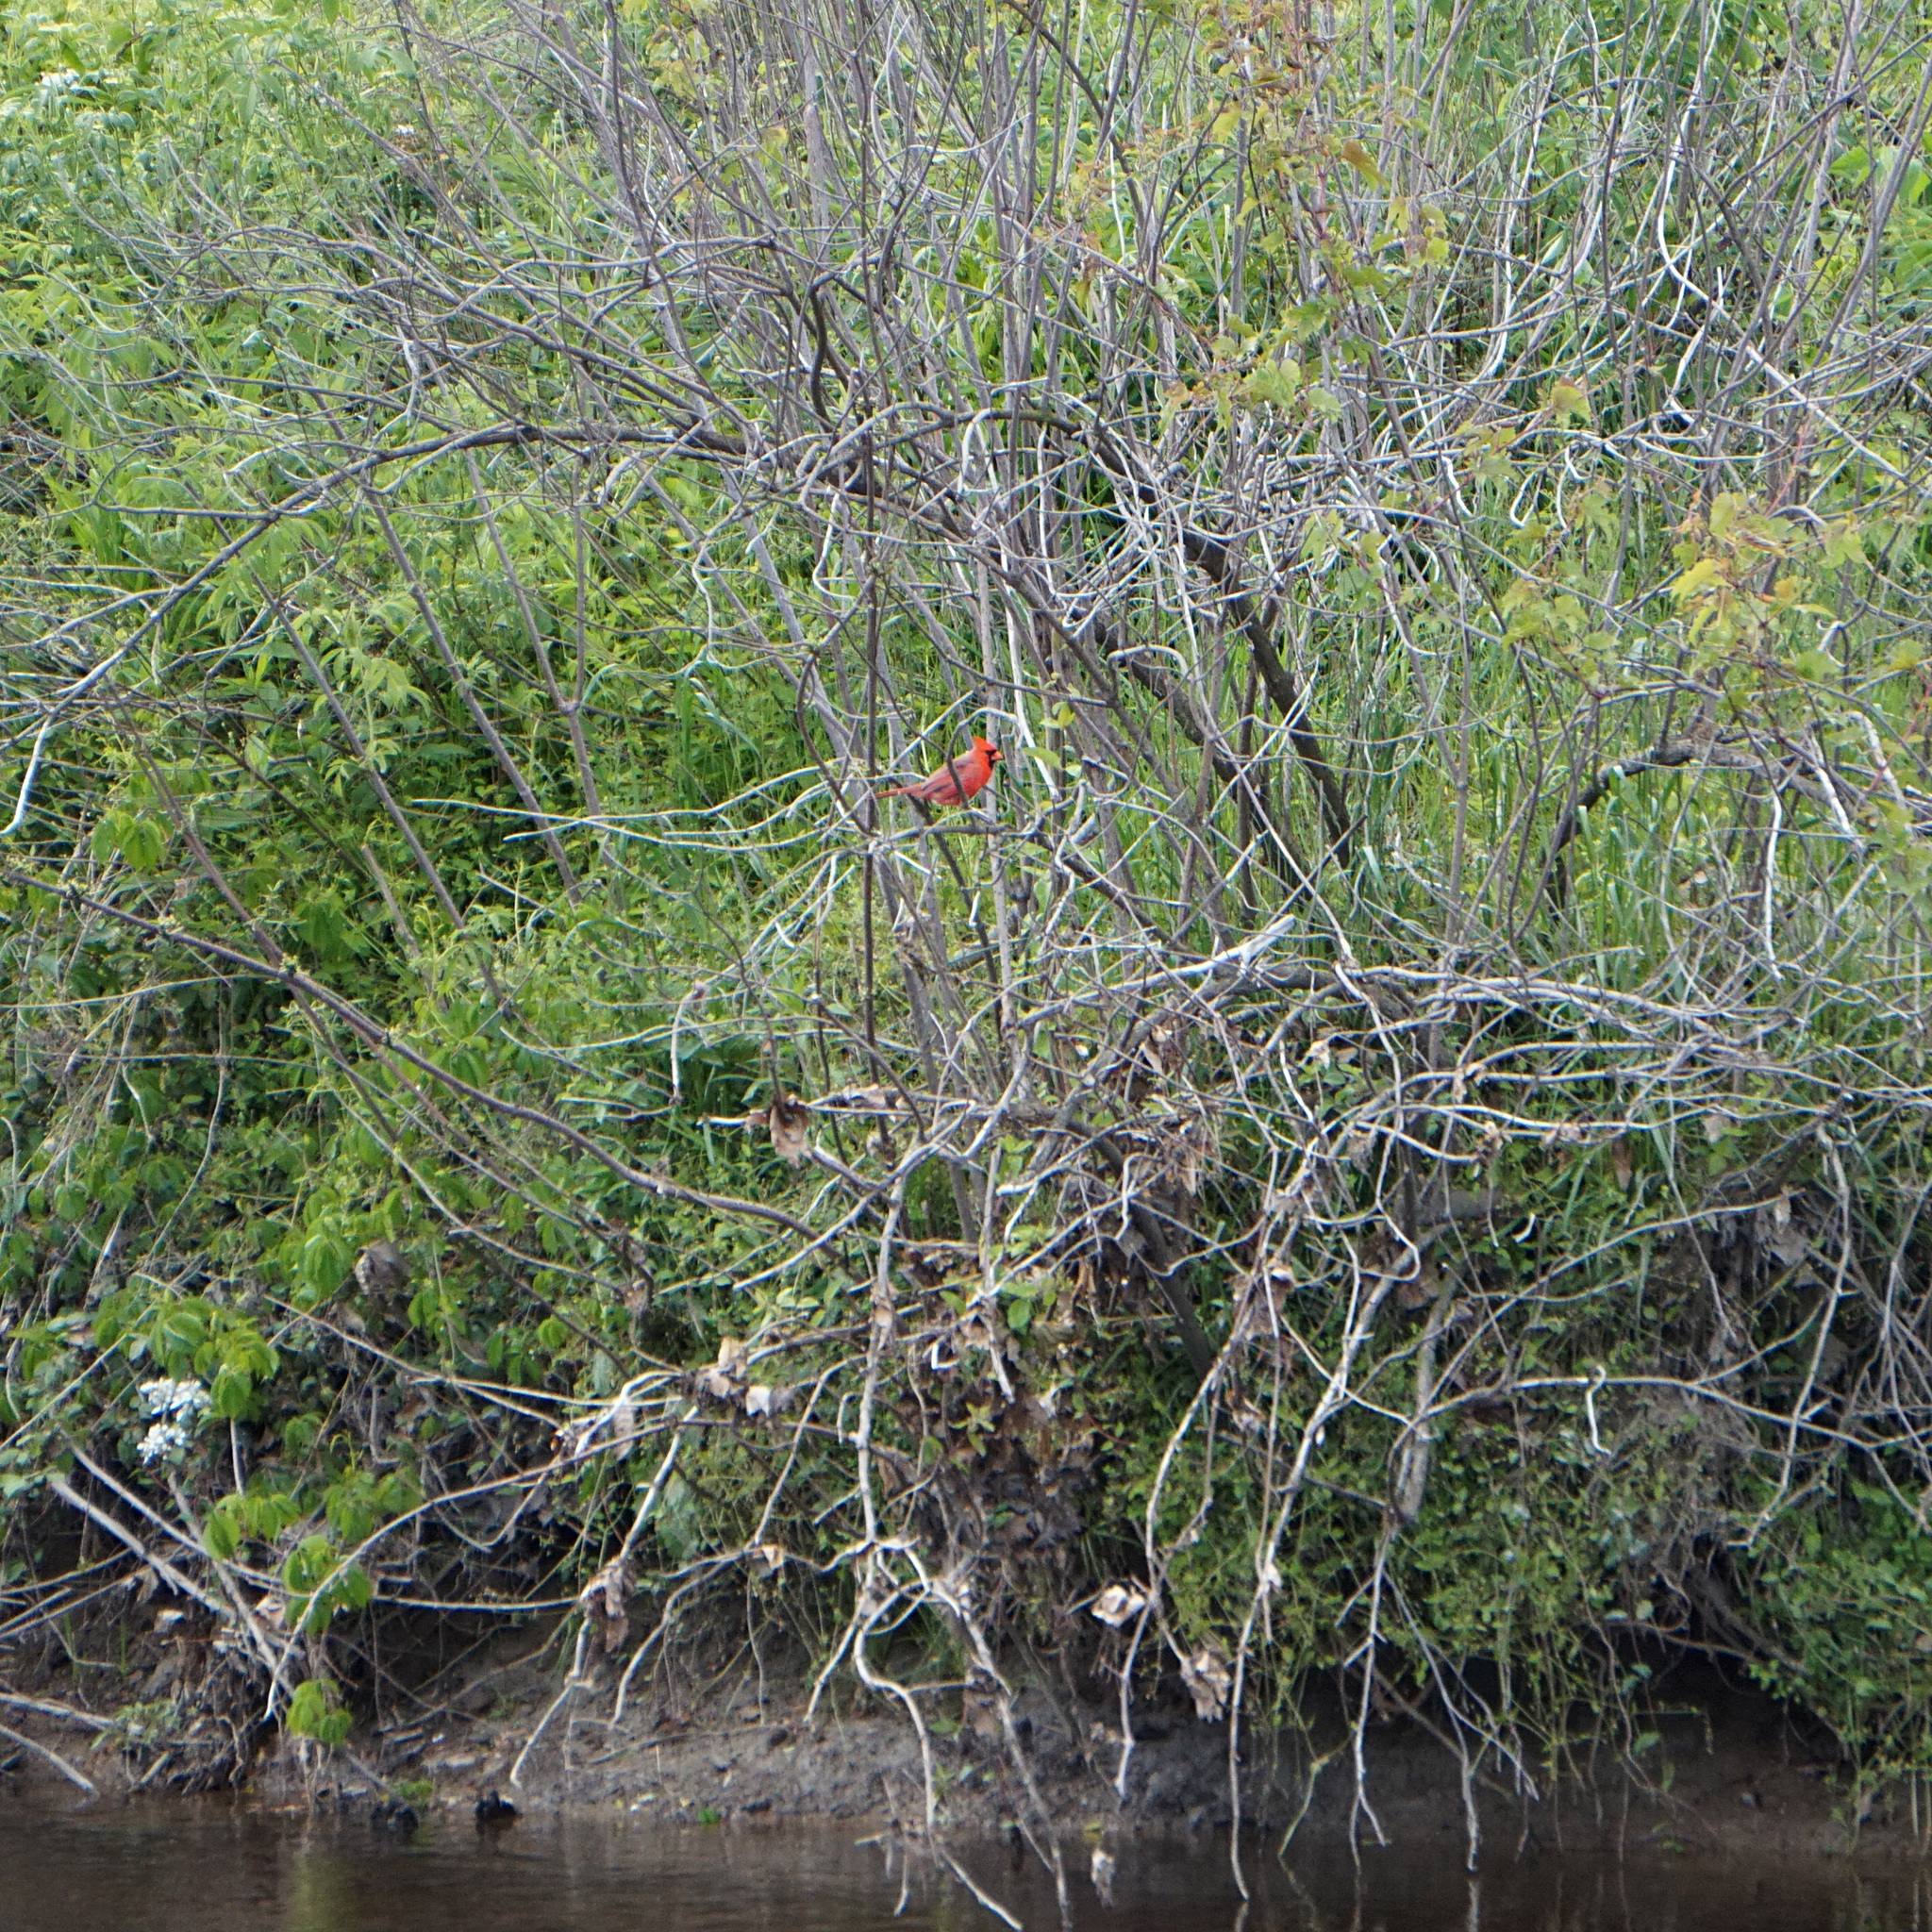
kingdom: Animalia
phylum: Chordata
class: Aves
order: Passeriformes
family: Cardinalidae
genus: Cardinalis
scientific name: Cardinalis cardinalis
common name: Northern cardinal
